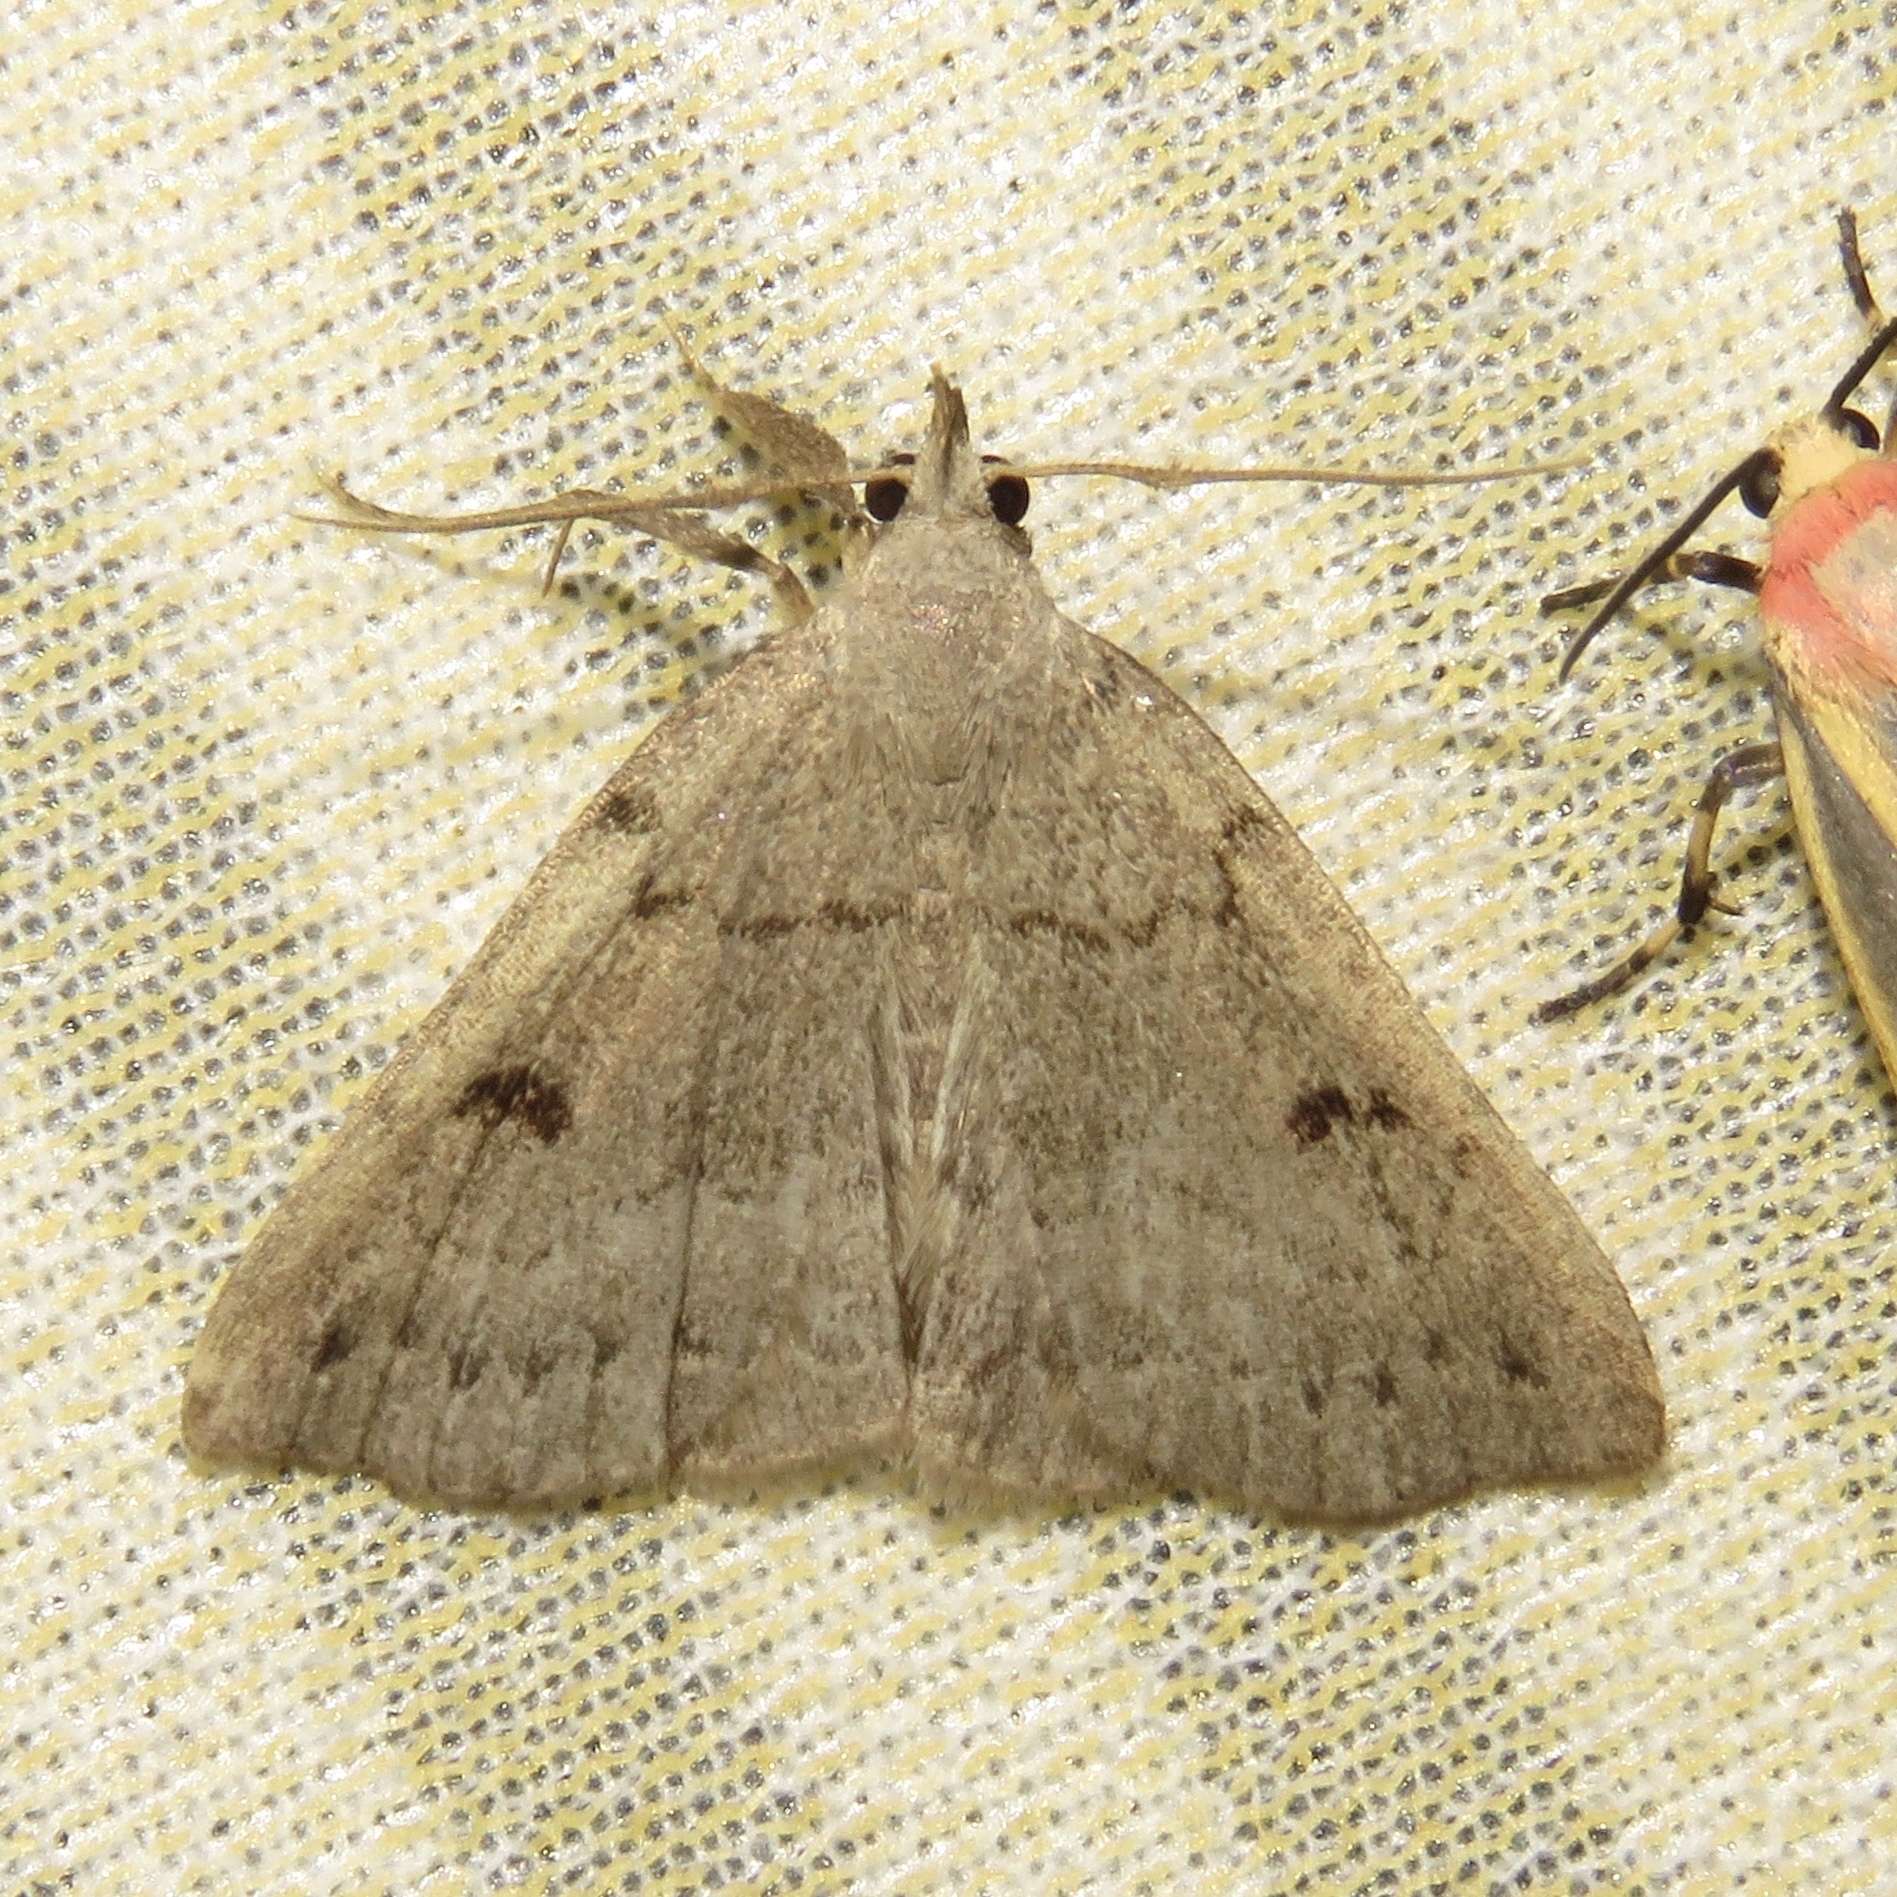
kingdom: Animalia
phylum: Arthropoda
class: Insecta
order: Lepidoptera
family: Erebidae
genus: Macrochilo
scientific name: Macrochilo morbidalis
